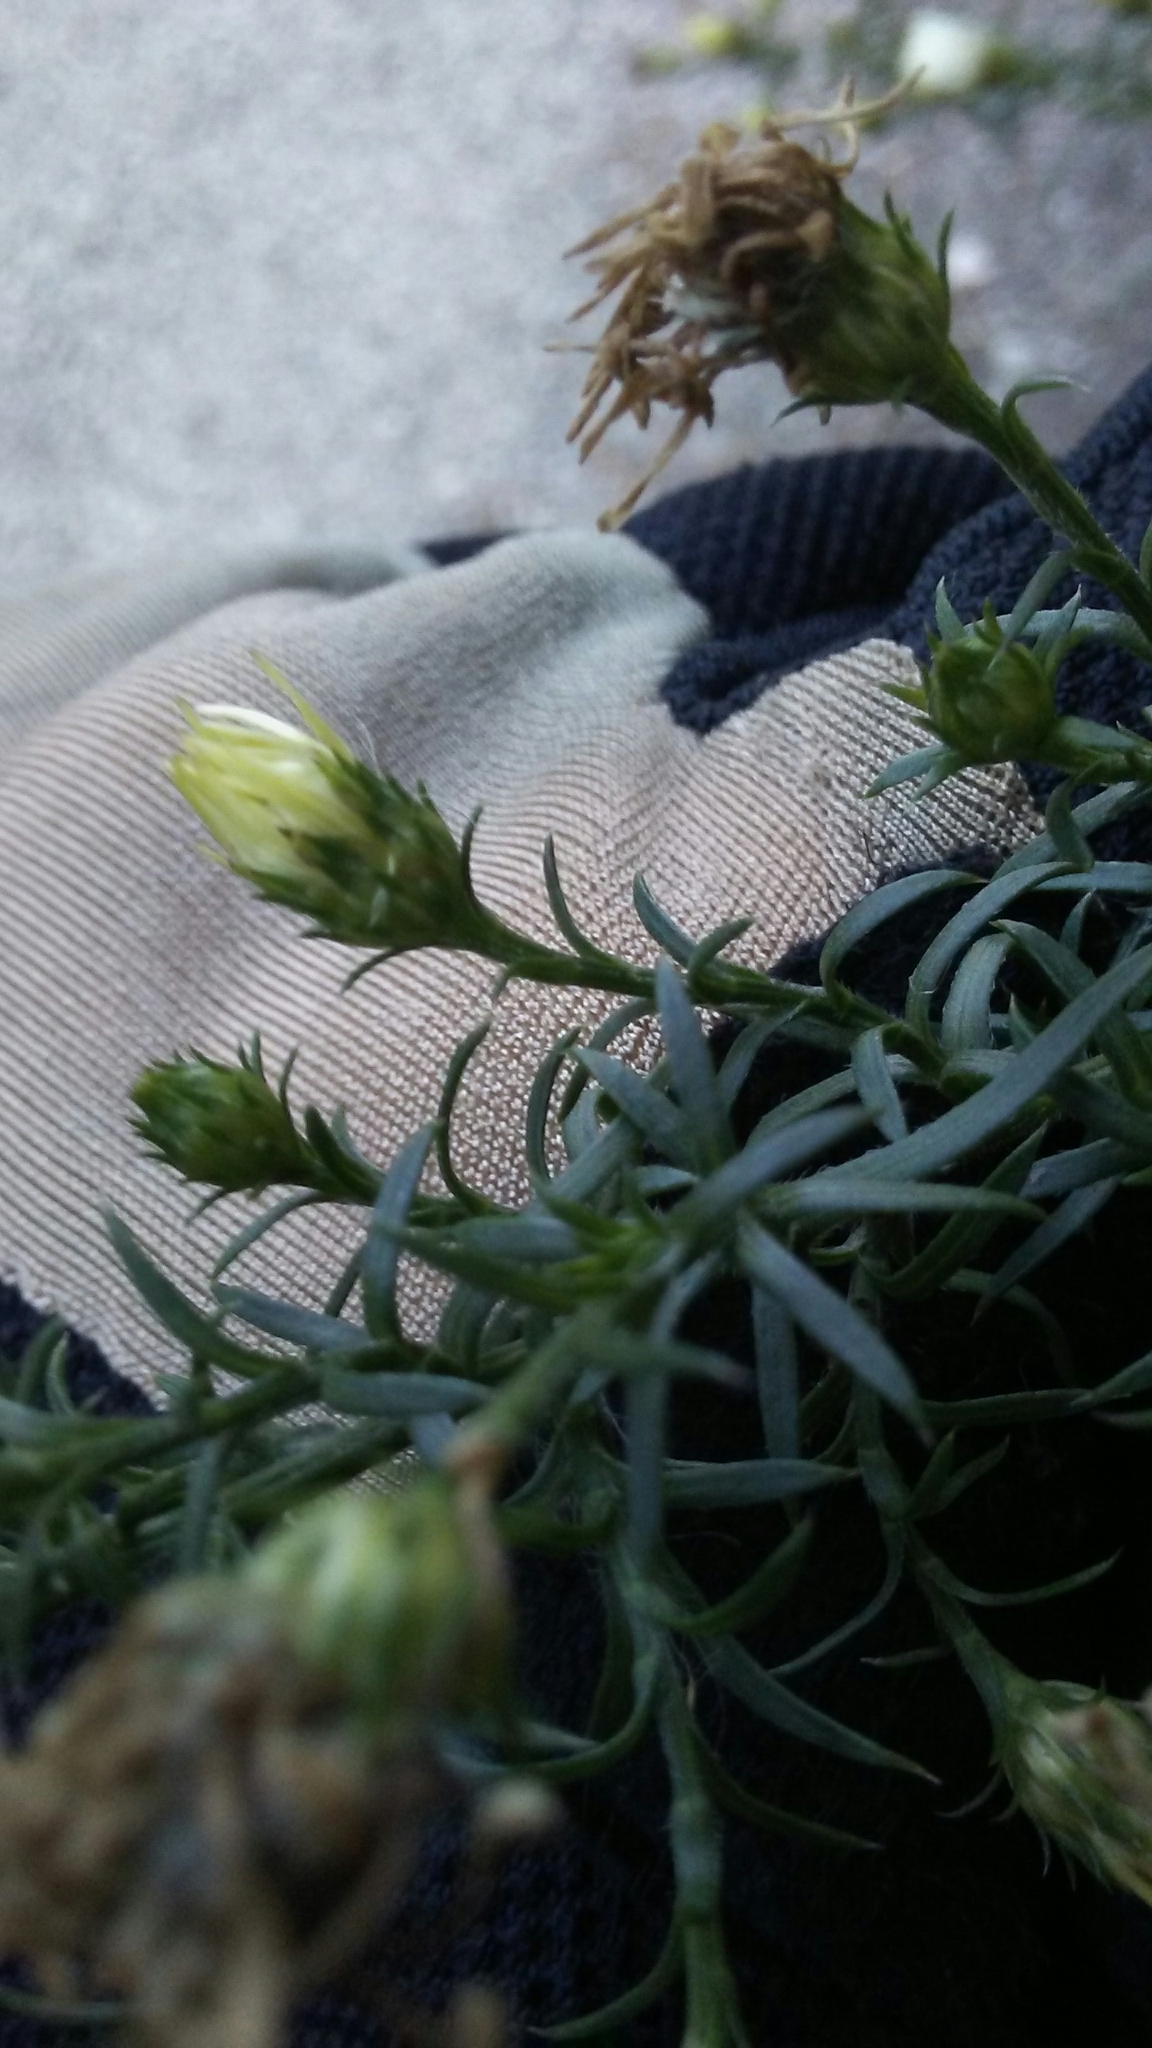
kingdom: Plantae
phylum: Tracheophyta
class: Magnoliopsida
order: Asterales
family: Asteraceae
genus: Symphyotrichum
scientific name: Symphyotrichum pilosum
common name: Awl aster
